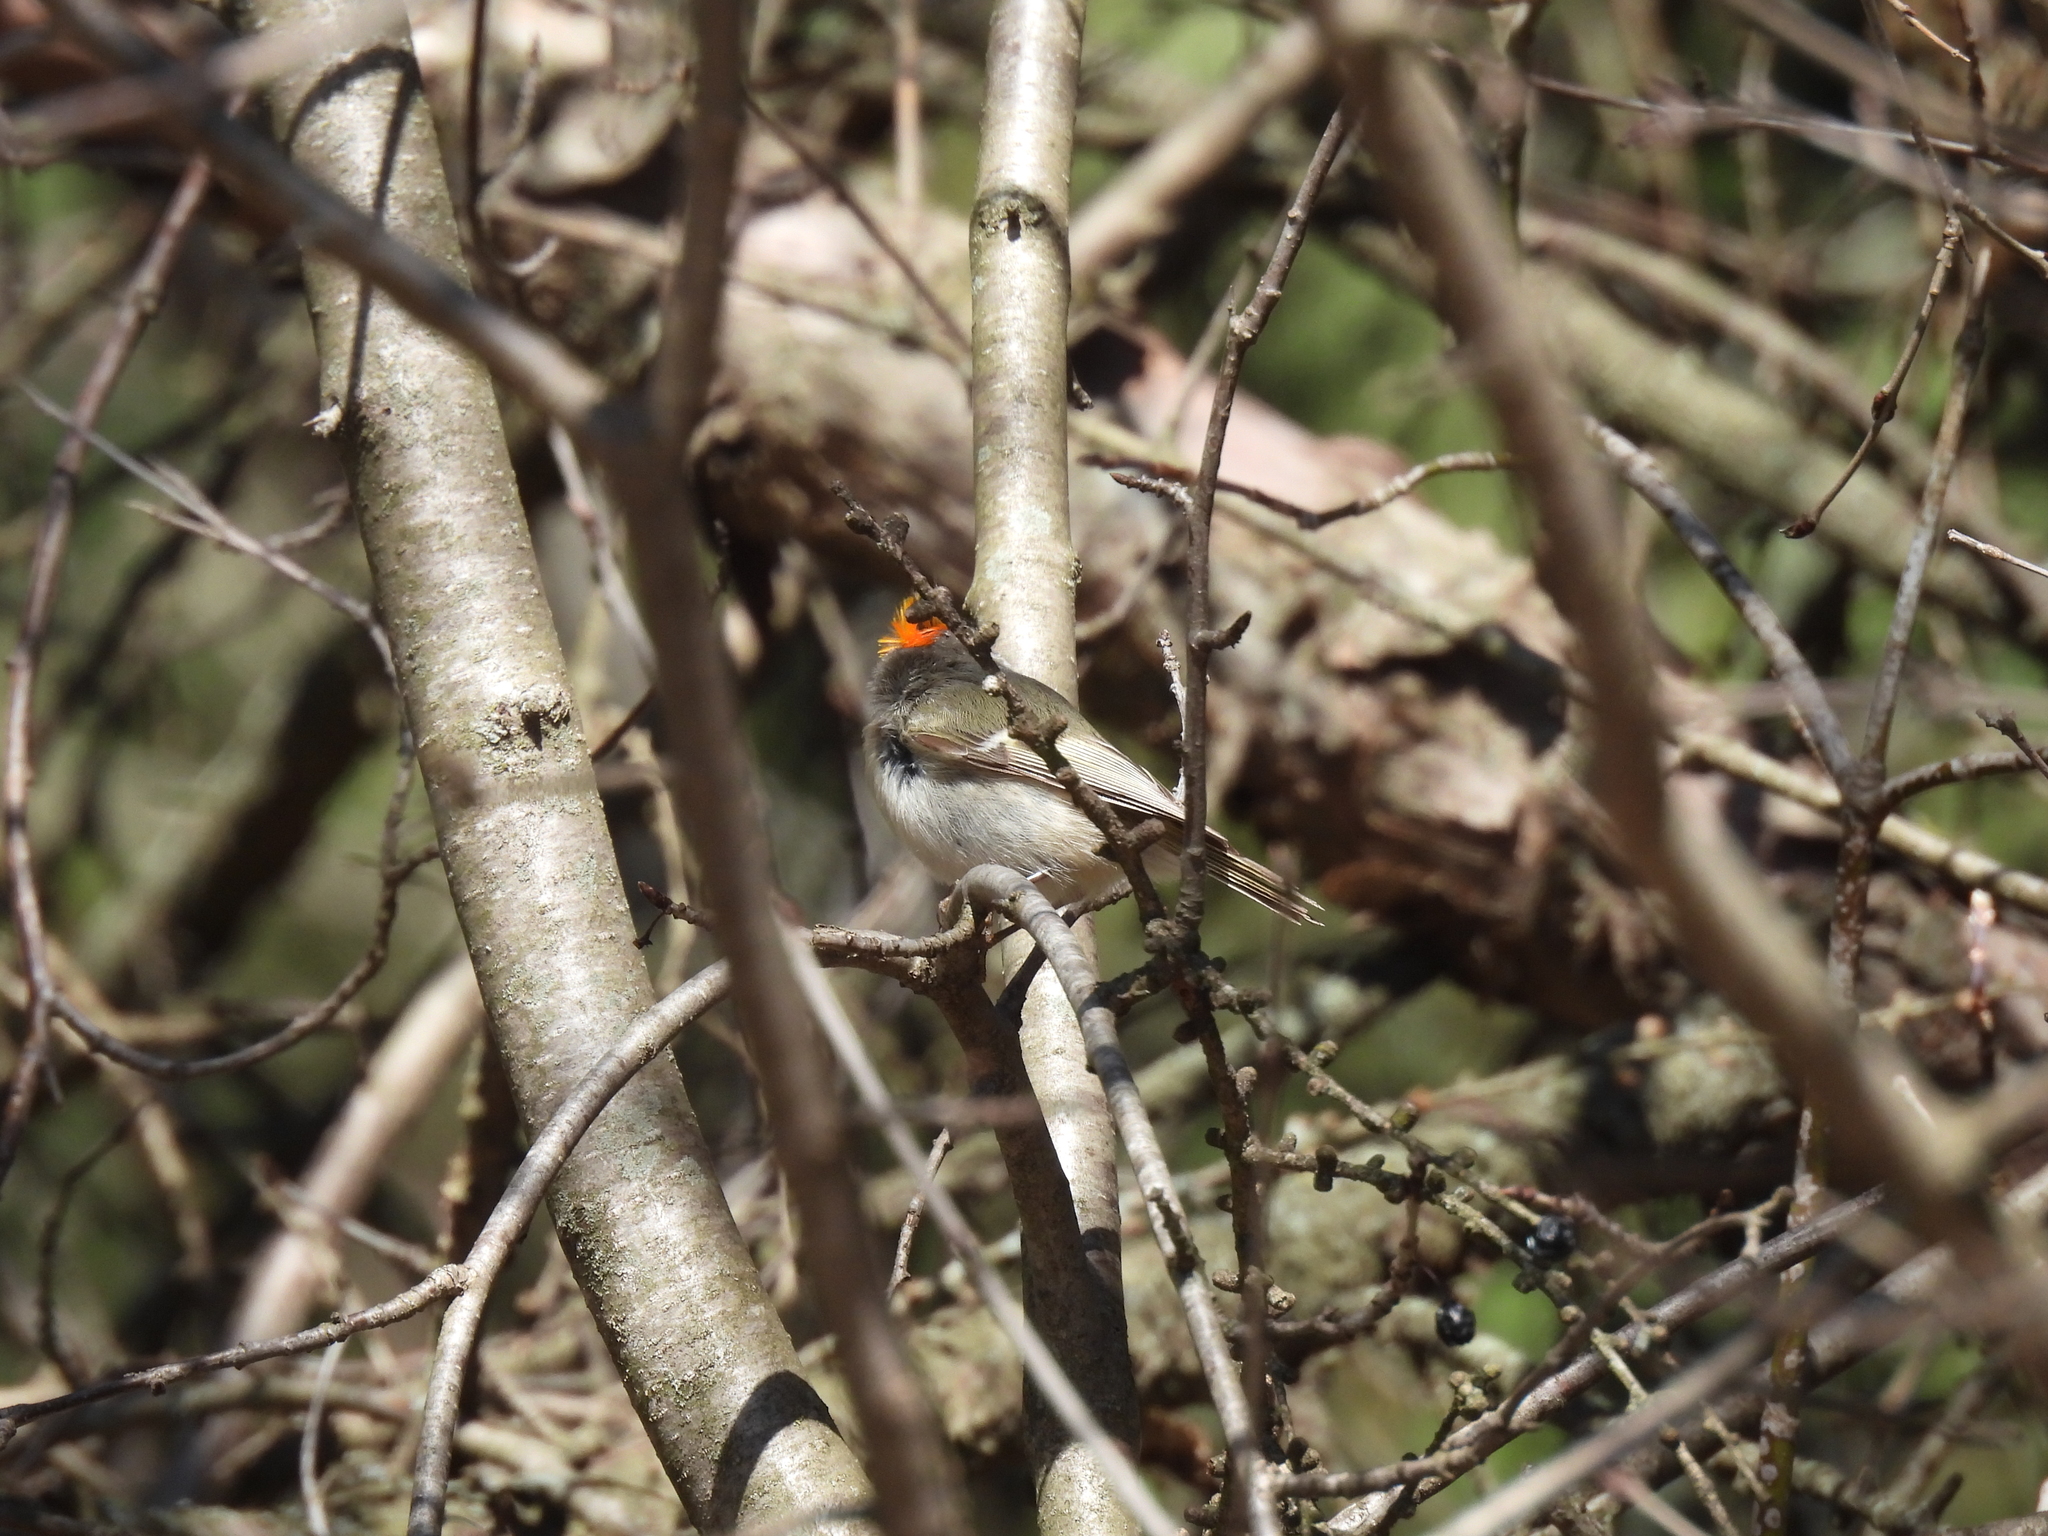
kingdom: Animalia
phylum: Chordata
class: Aves
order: Passeriformes
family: Regulidae
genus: Regulus
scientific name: Regulus satrapa
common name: Golden-crowned kinglet
